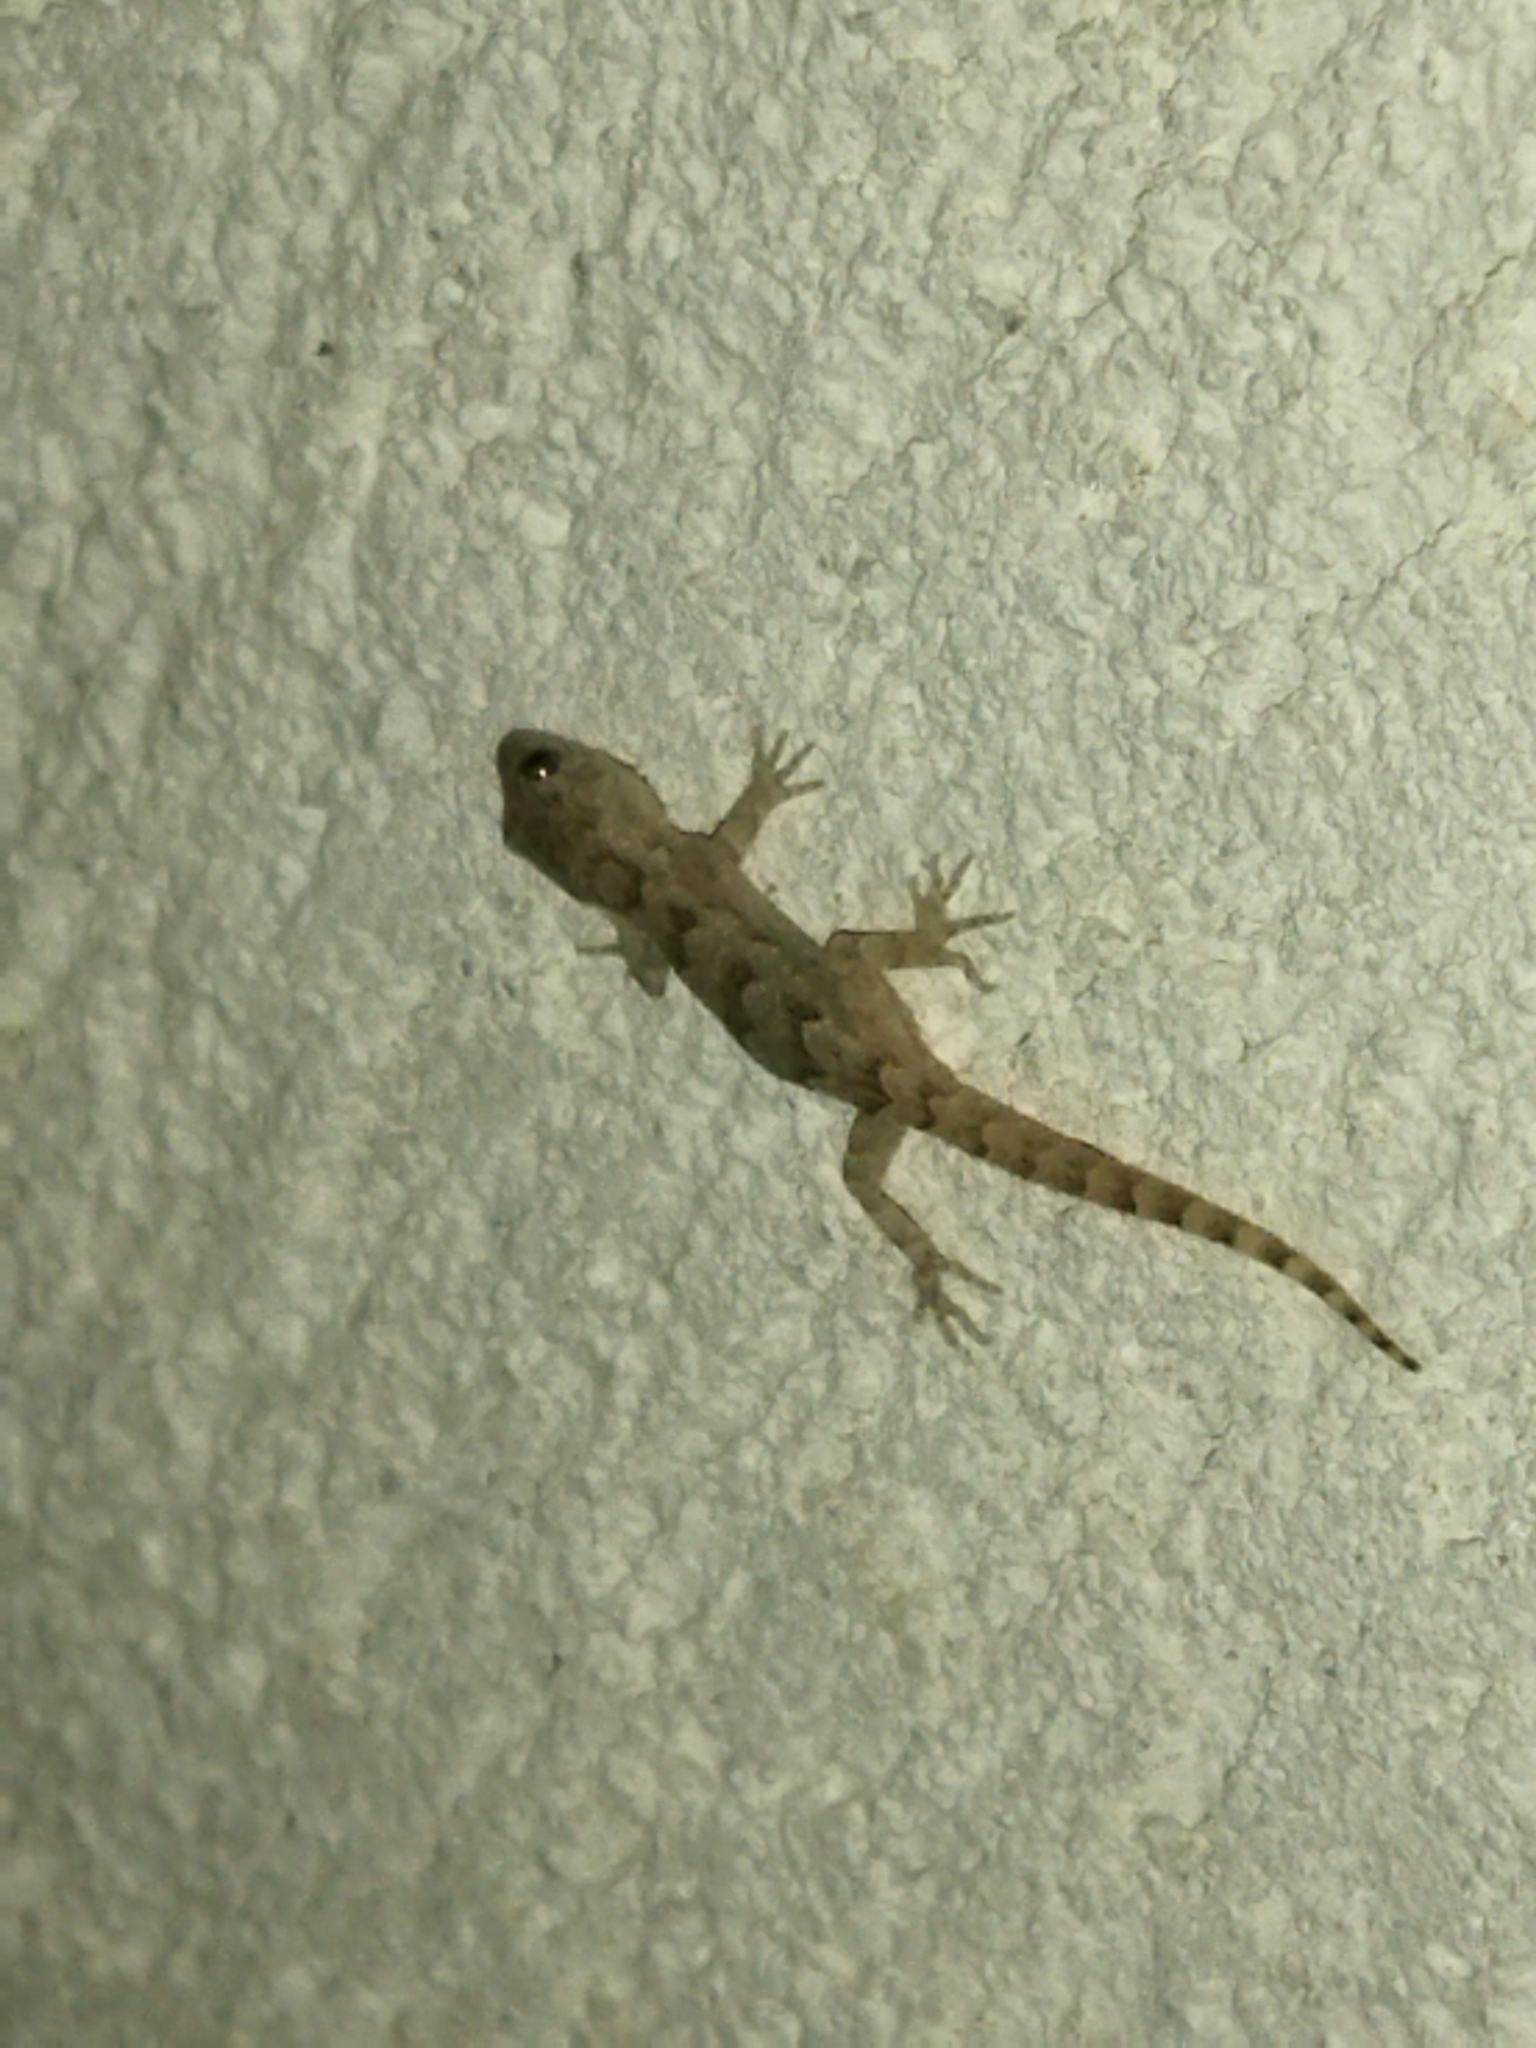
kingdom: Animalia
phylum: Chordata
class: Squamata
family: Gekkonidae
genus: Mediodactylus
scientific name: Mediodactylus kotschyi
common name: Kotschy's gecko
